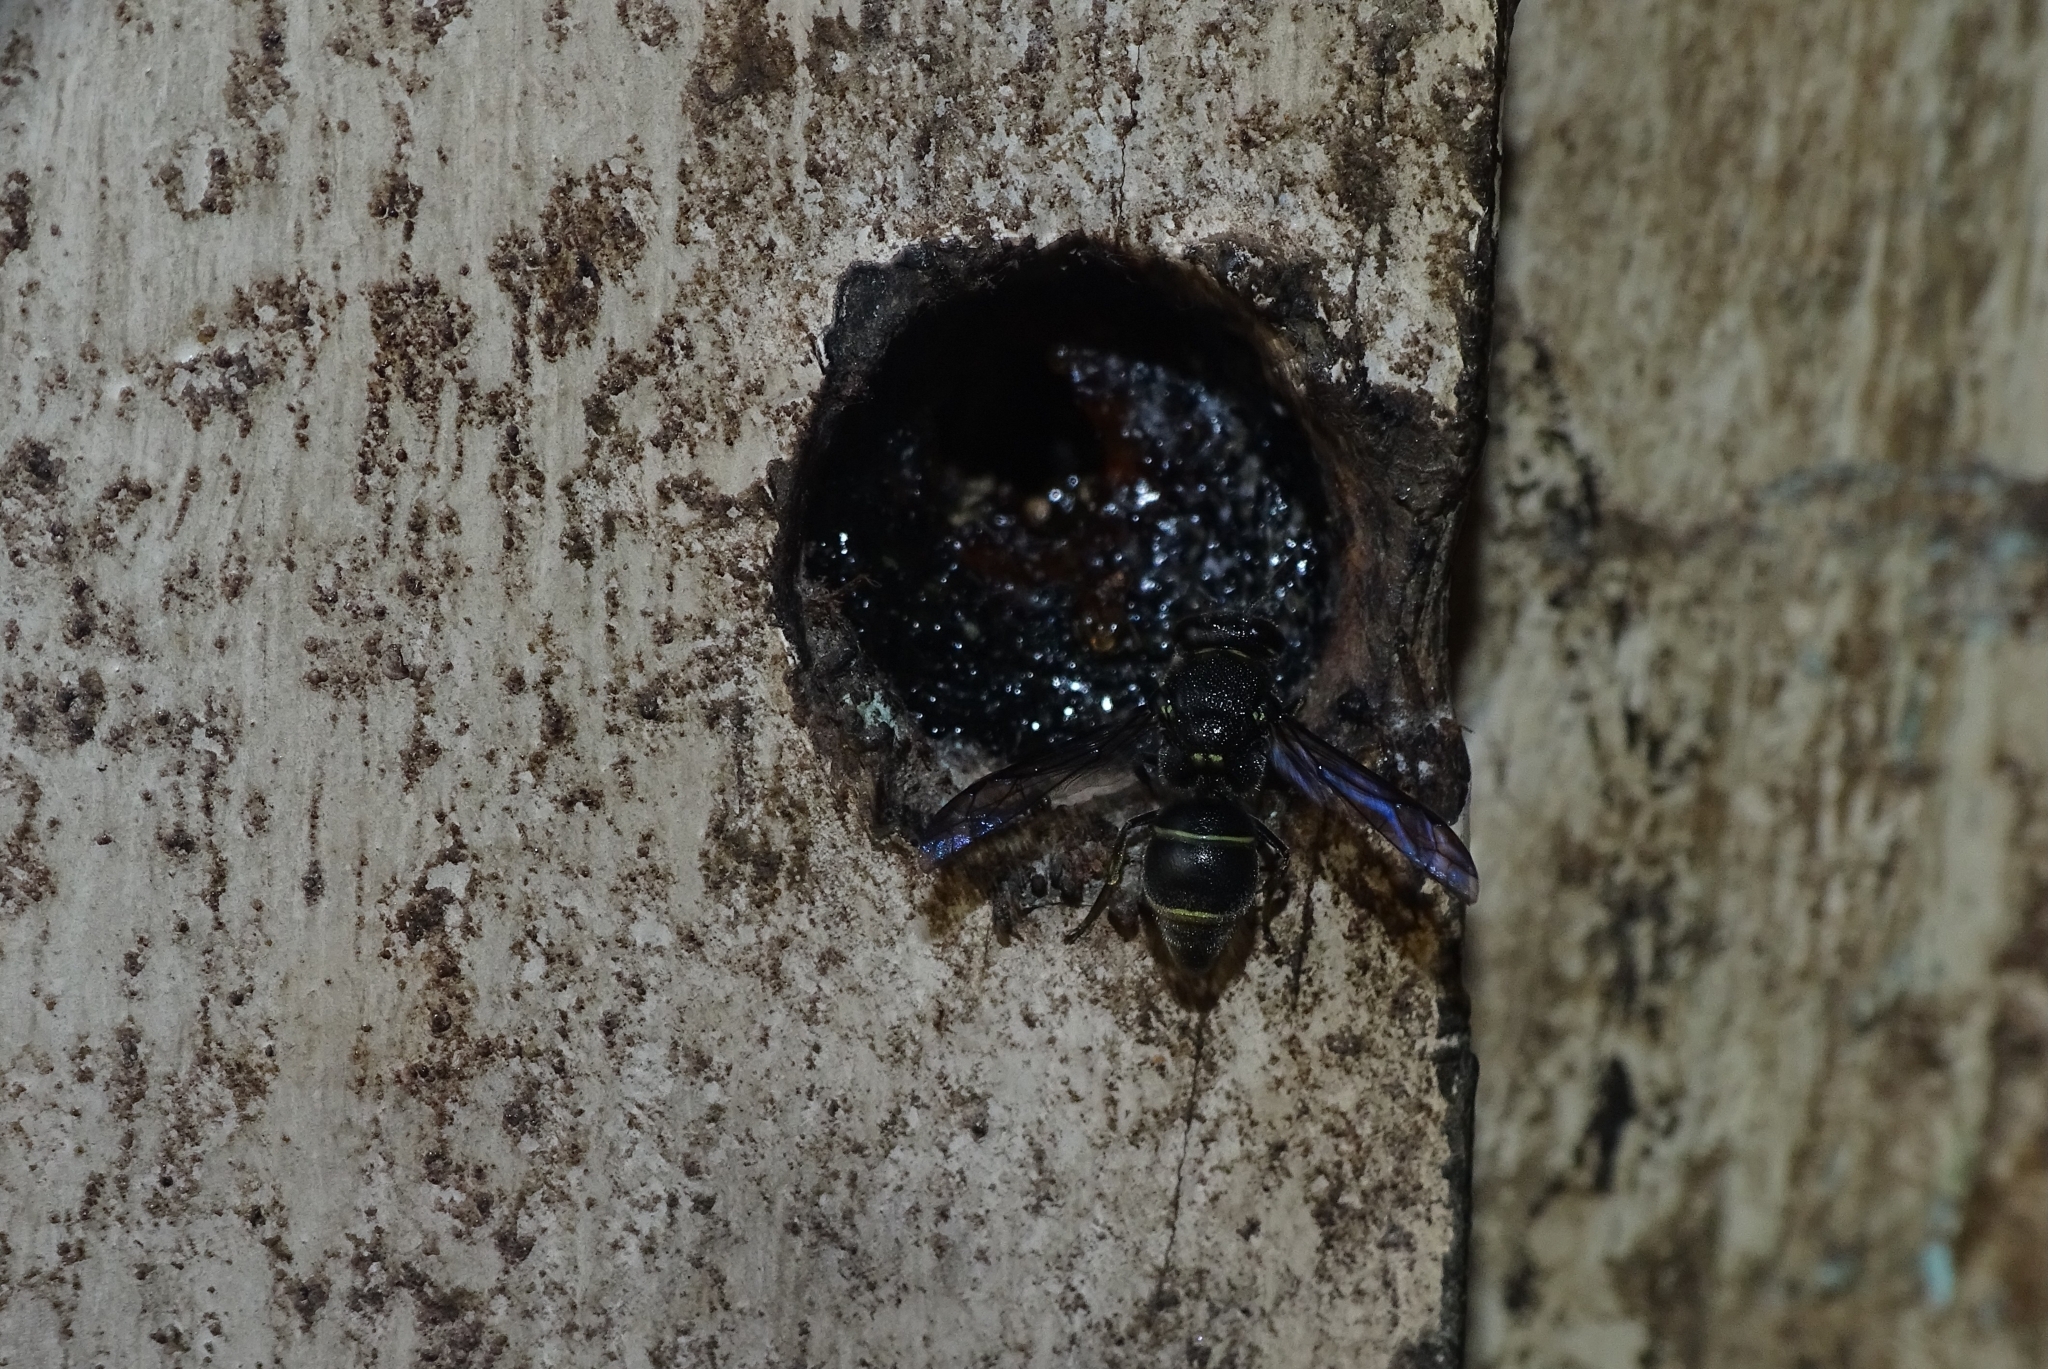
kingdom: Animalia
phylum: Arthropoda
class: Insecta
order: Hymenoptera
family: Eumenidae
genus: Antepipona
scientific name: Antepipona chikmagalurensis
